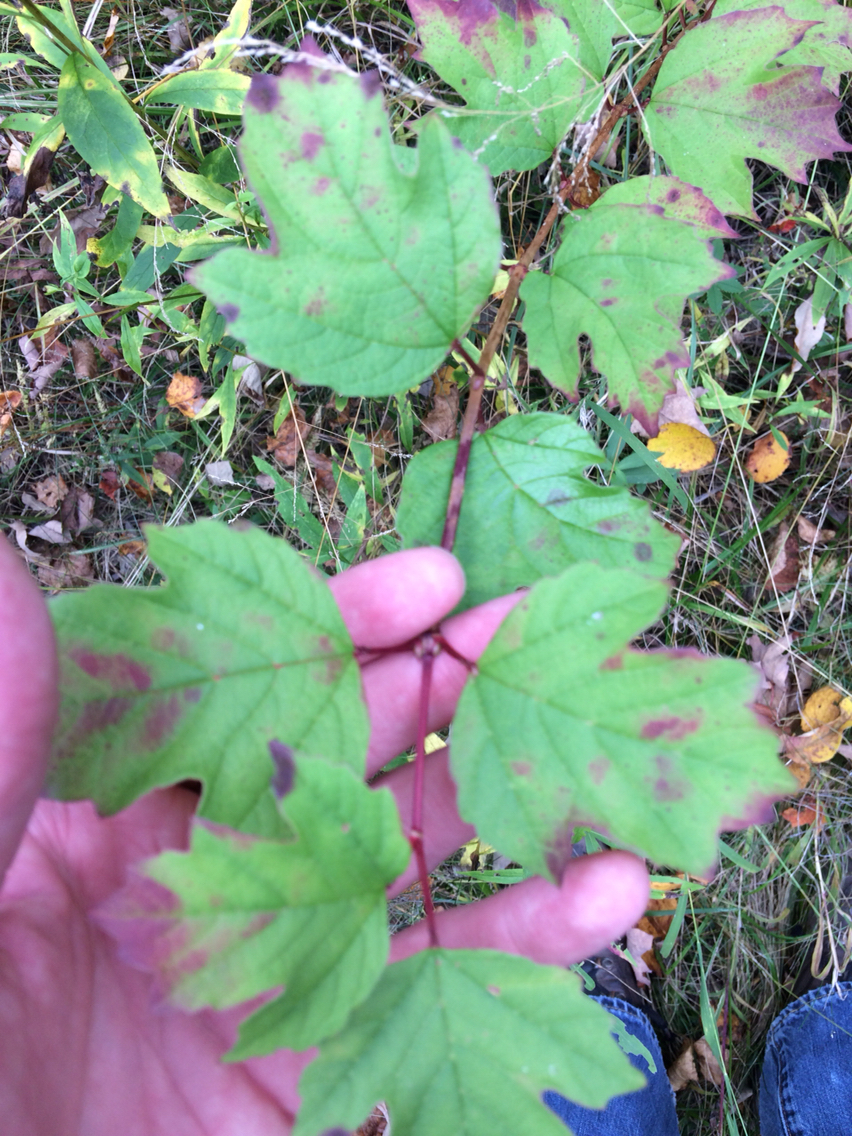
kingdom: Plantae
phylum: Tracheophyta
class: Magnoliopsida
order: Dipsacales
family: Viburnaceae
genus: Viburnum
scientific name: Viburnum opulus
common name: Guelder-rose
